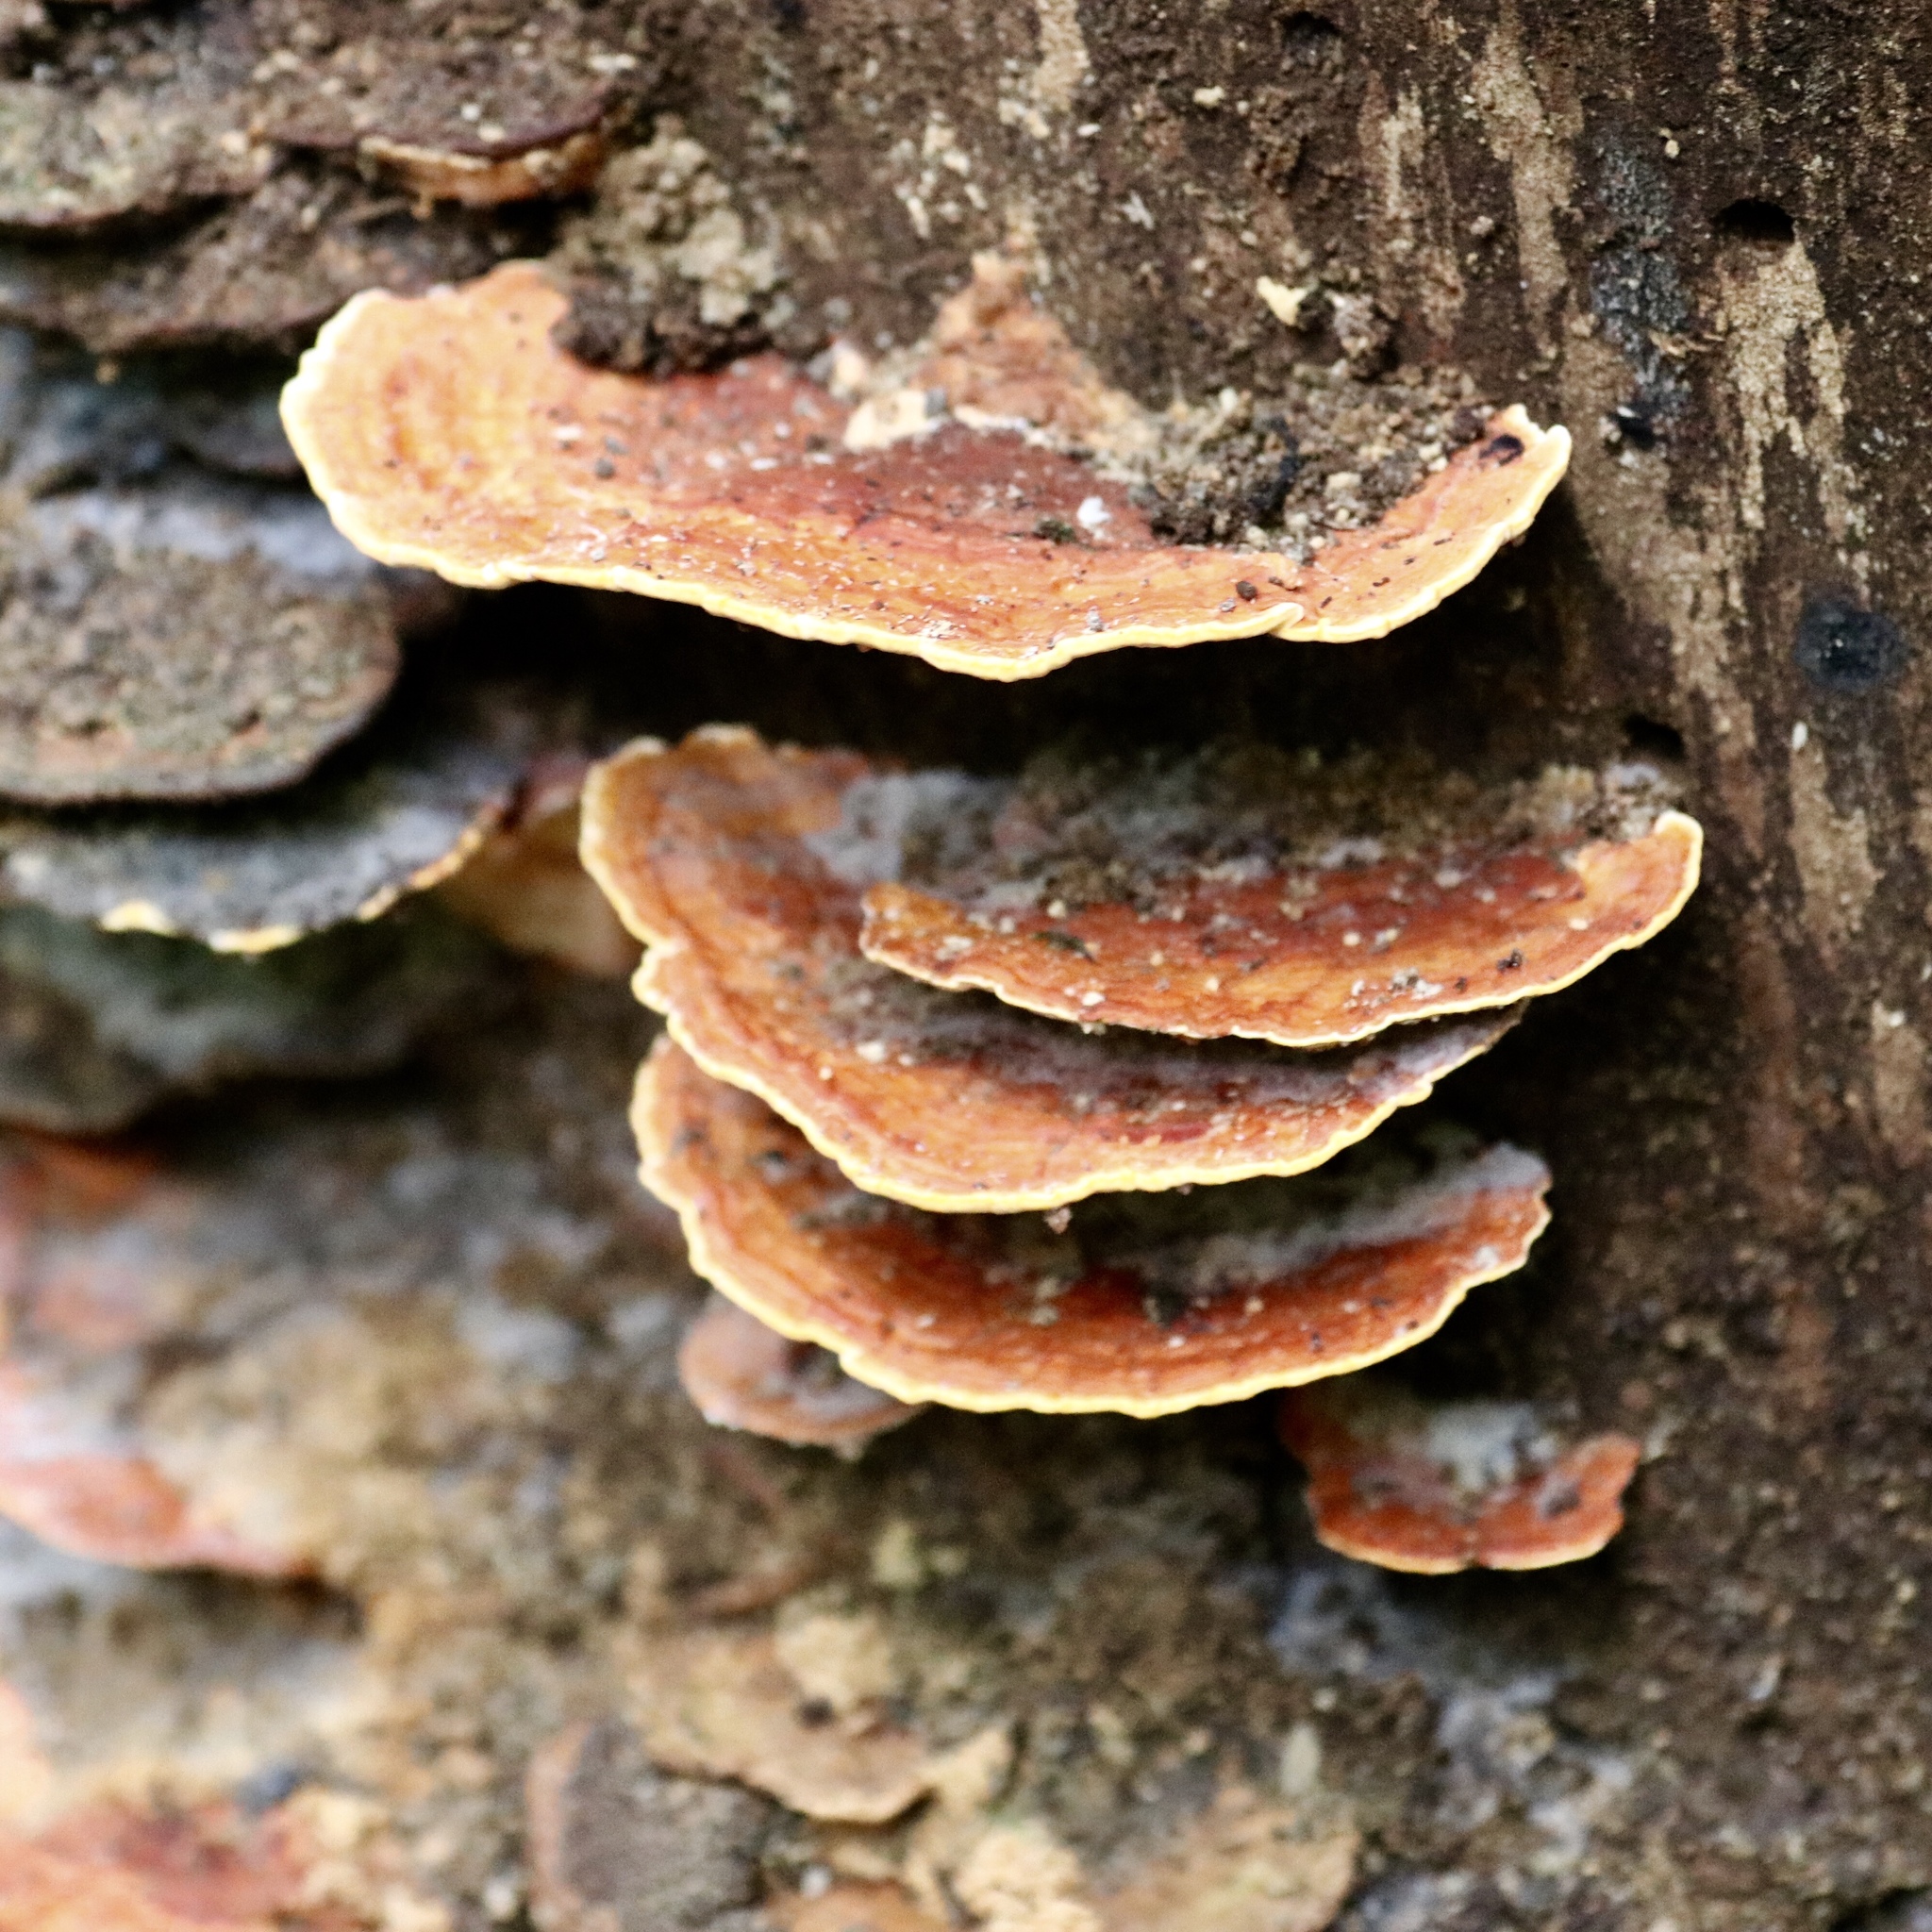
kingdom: Fungi
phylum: Basidiomycota
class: Agaricomycetes
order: Polyporales
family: Fomitopsidaceae
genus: Rhodofomes
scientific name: Rhodofomes cajanderi
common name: Rosy conk
